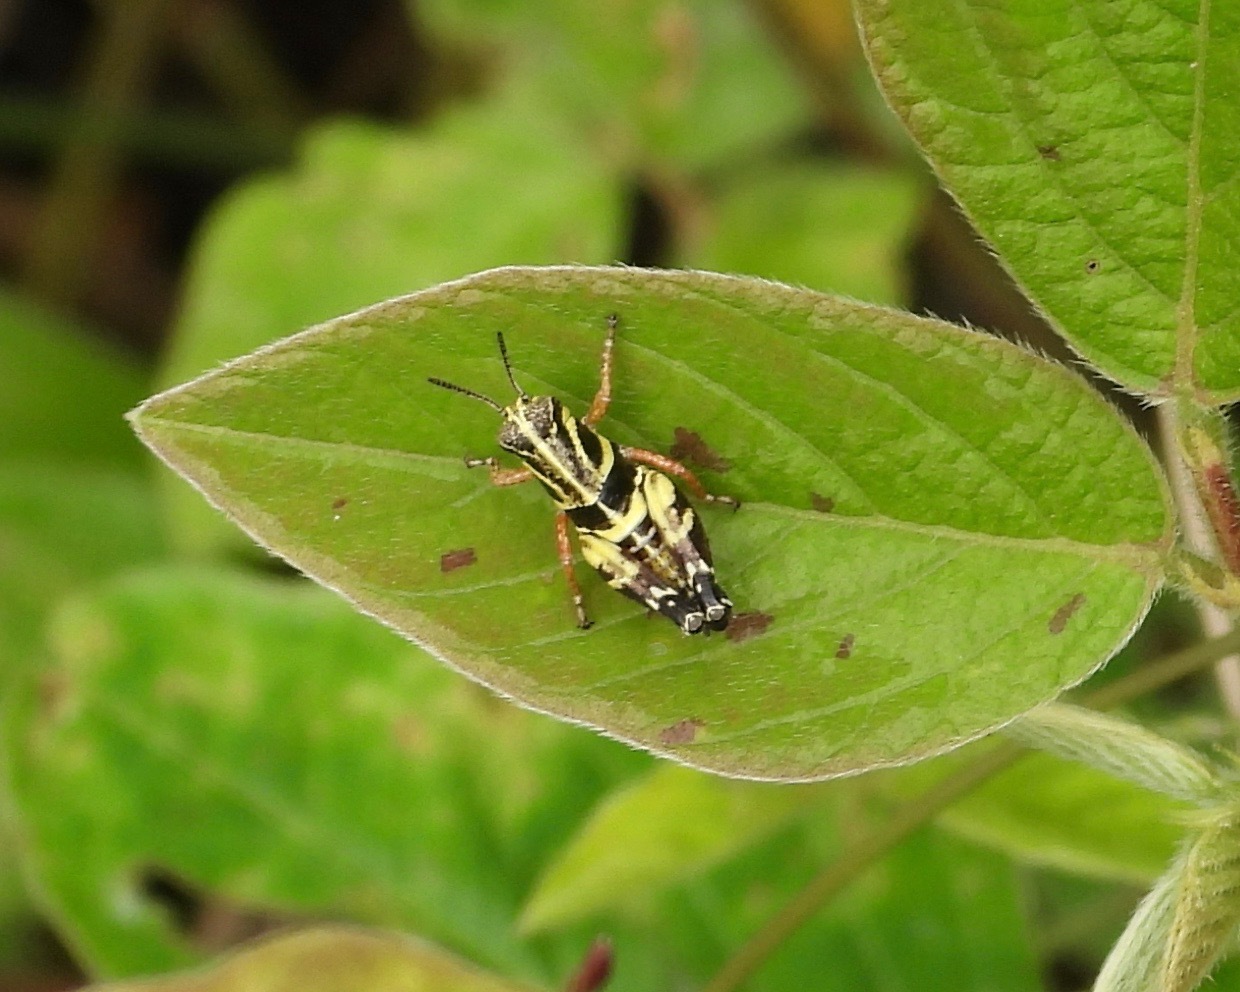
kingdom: Animalia
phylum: Arthropoda
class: Insecta
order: Orthoptera
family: Acrididae
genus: Aidemona
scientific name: Aidemona azteca
